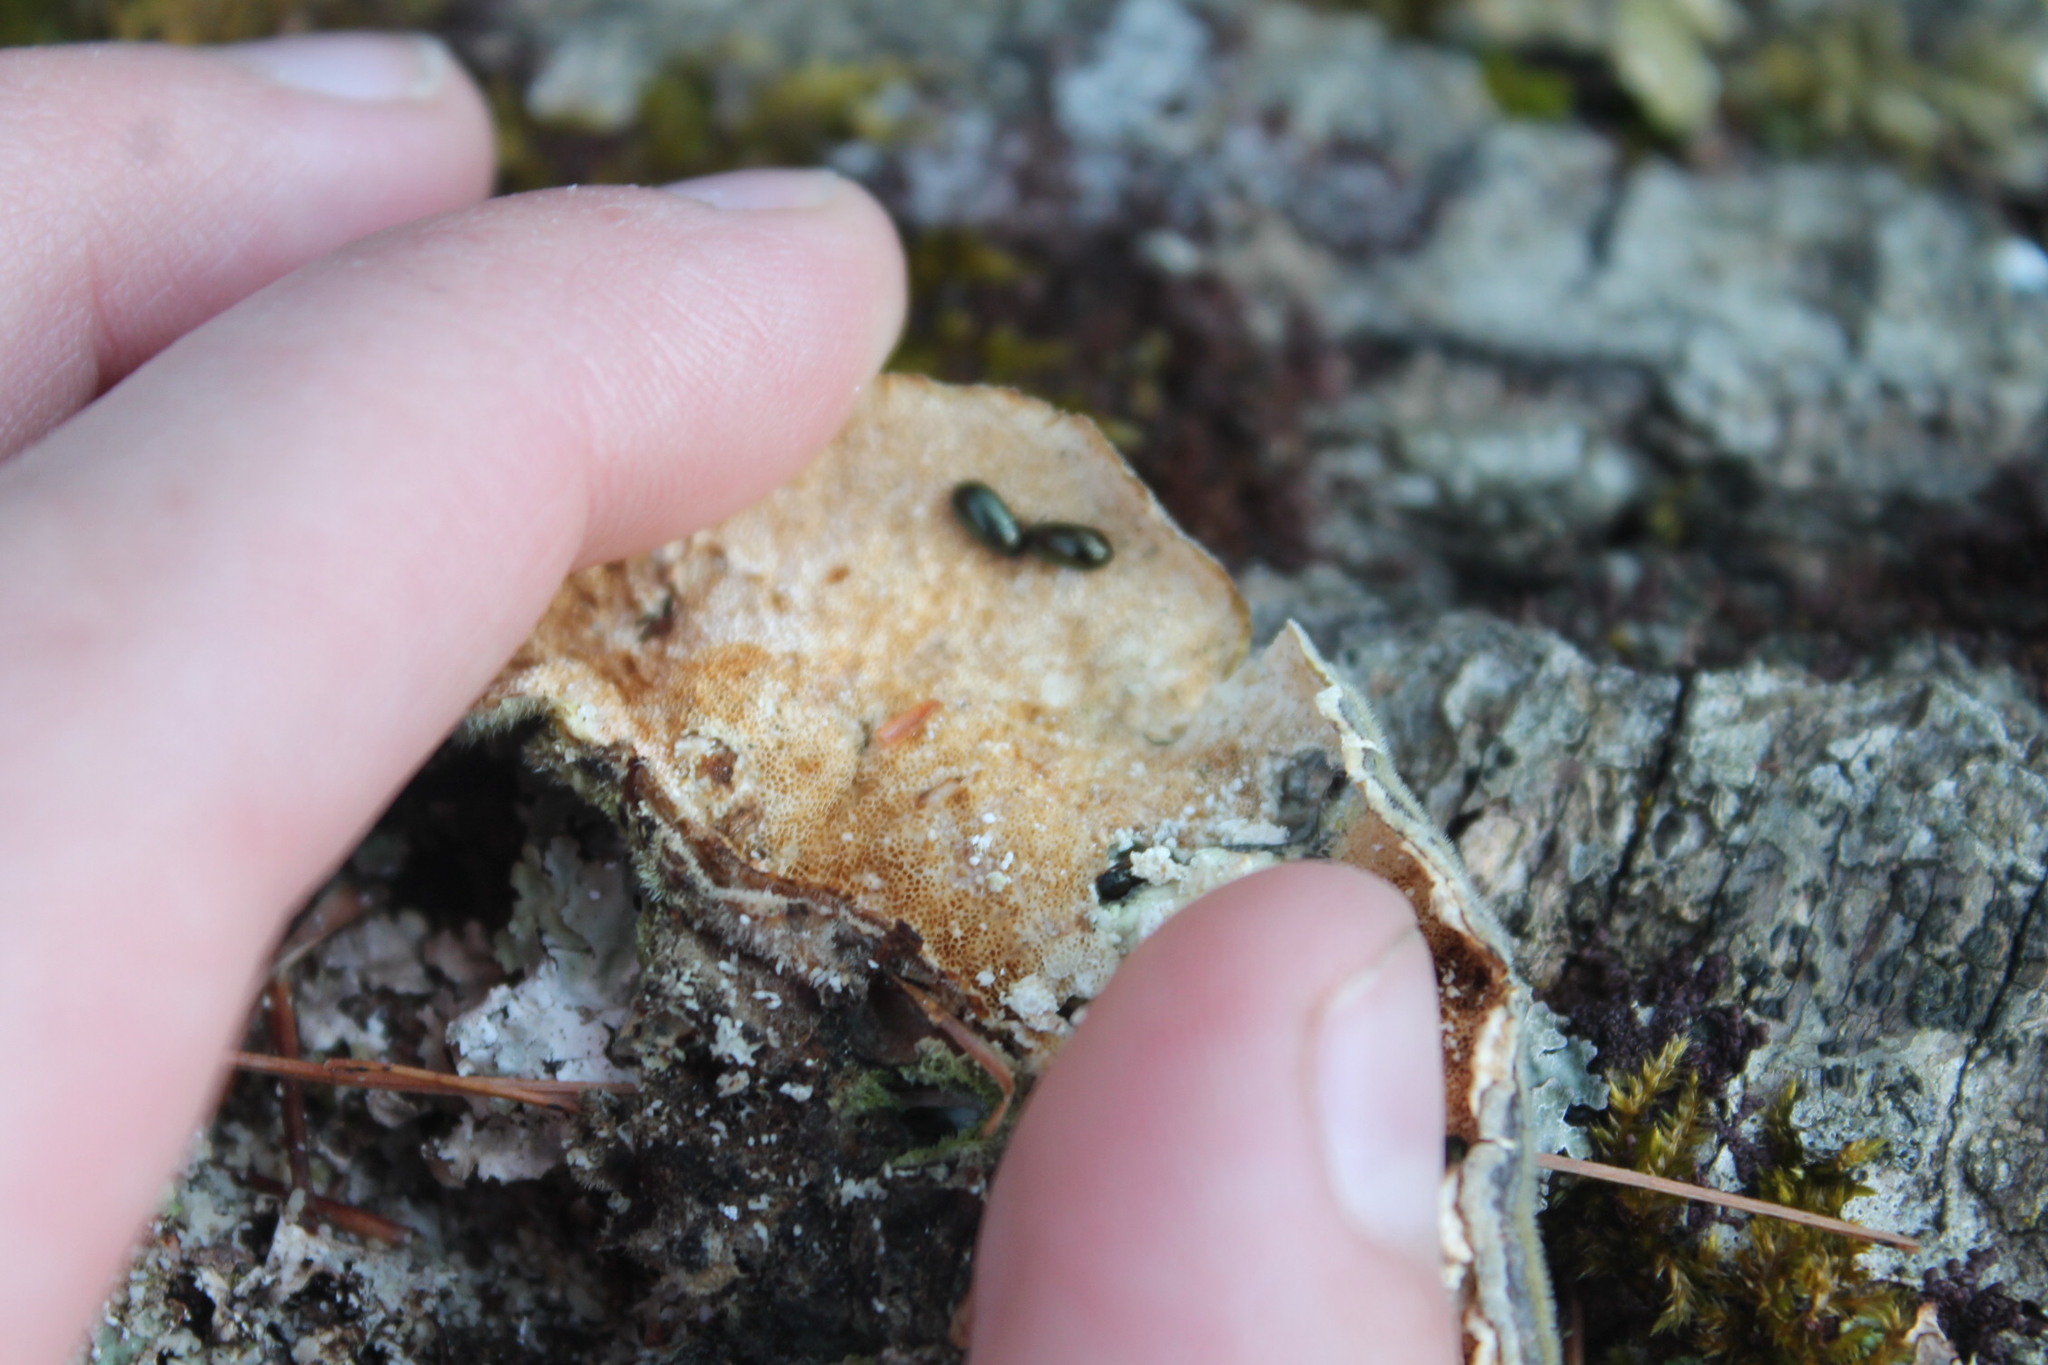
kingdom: Fungi
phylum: Basidiomycota
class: Agaricomycetes
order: Polyporales
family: Polyporaceae
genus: Trametes
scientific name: Trametes versicolor
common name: Turkeytail
